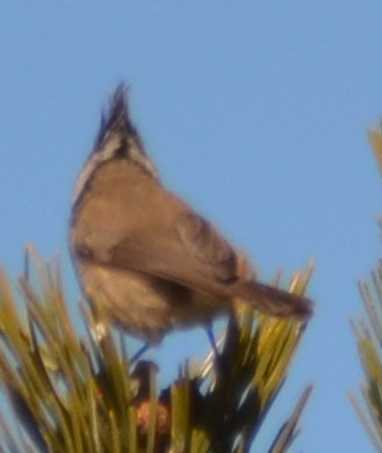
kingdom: Animalia
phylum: Chordata
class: Aves
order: Passeriformes
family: Paridae
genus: Lophophanes
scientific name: Lophophanes cristatus
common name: European crested tit
